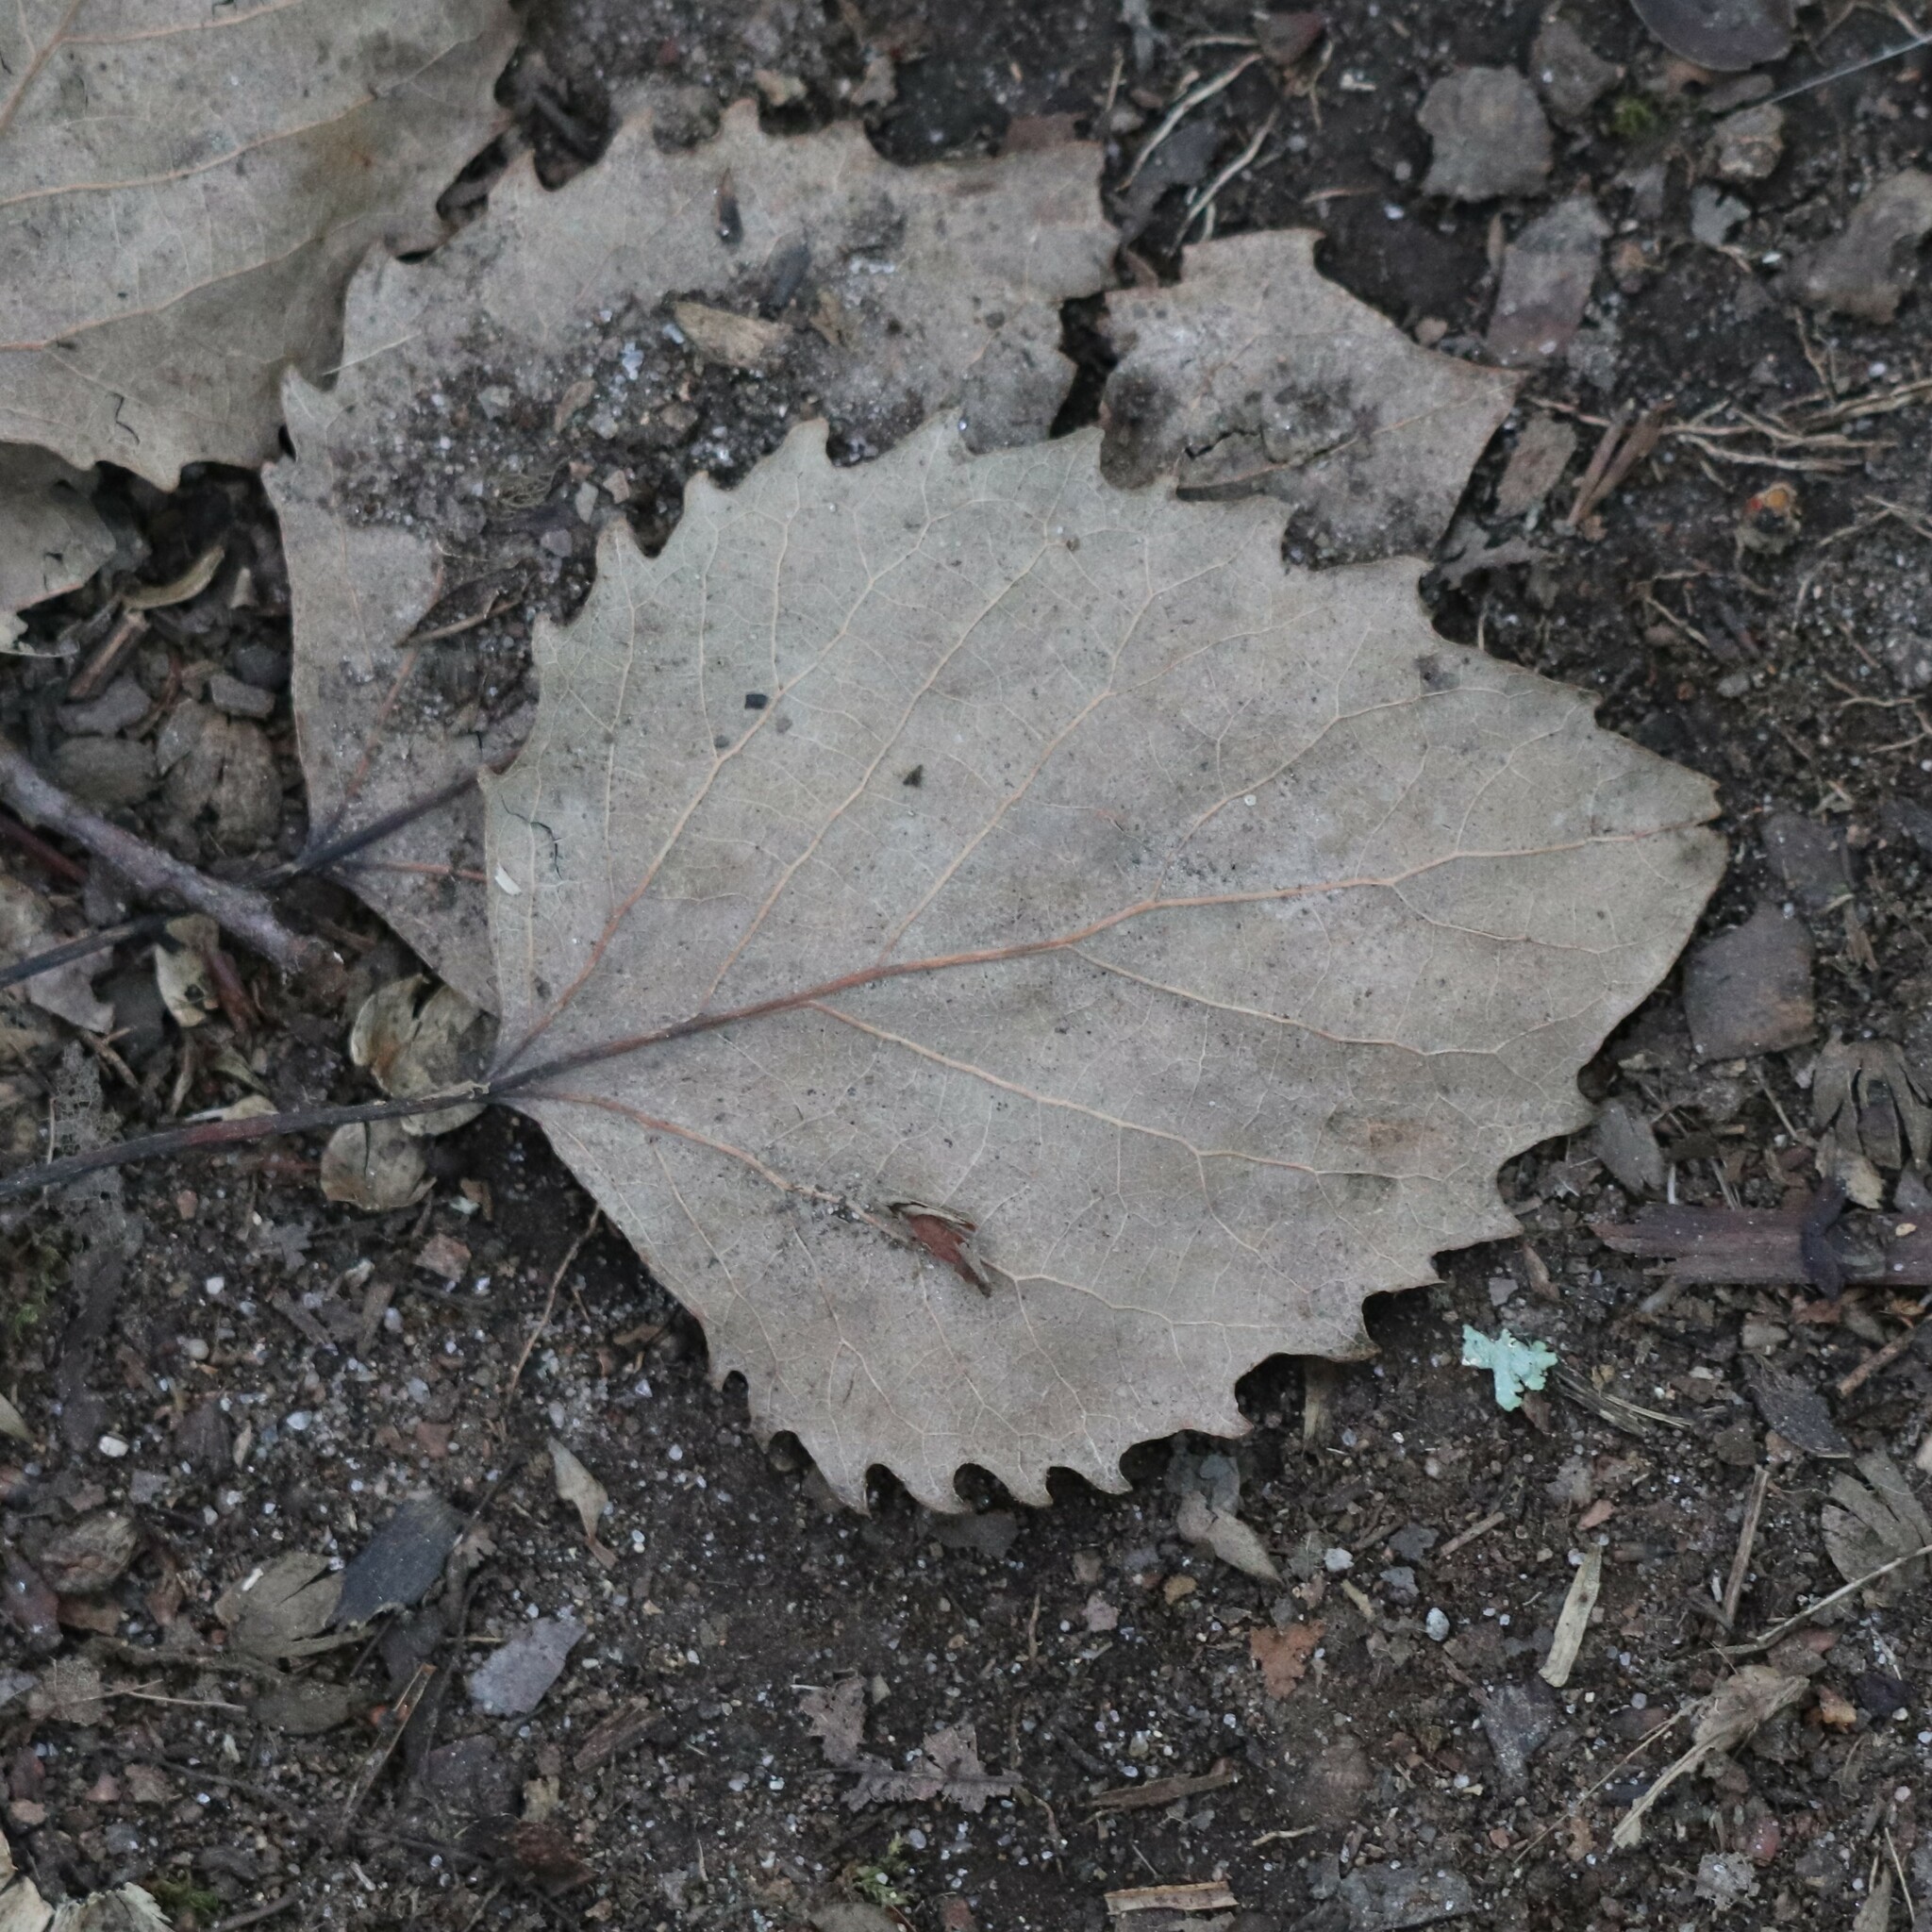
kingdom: Plantae
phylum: Tracheophyta
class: Magnoliopsida
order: Malpighiales
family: Salicaceae
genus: Populus
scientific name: Populus grandidentata
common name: Bigtooth aspen
